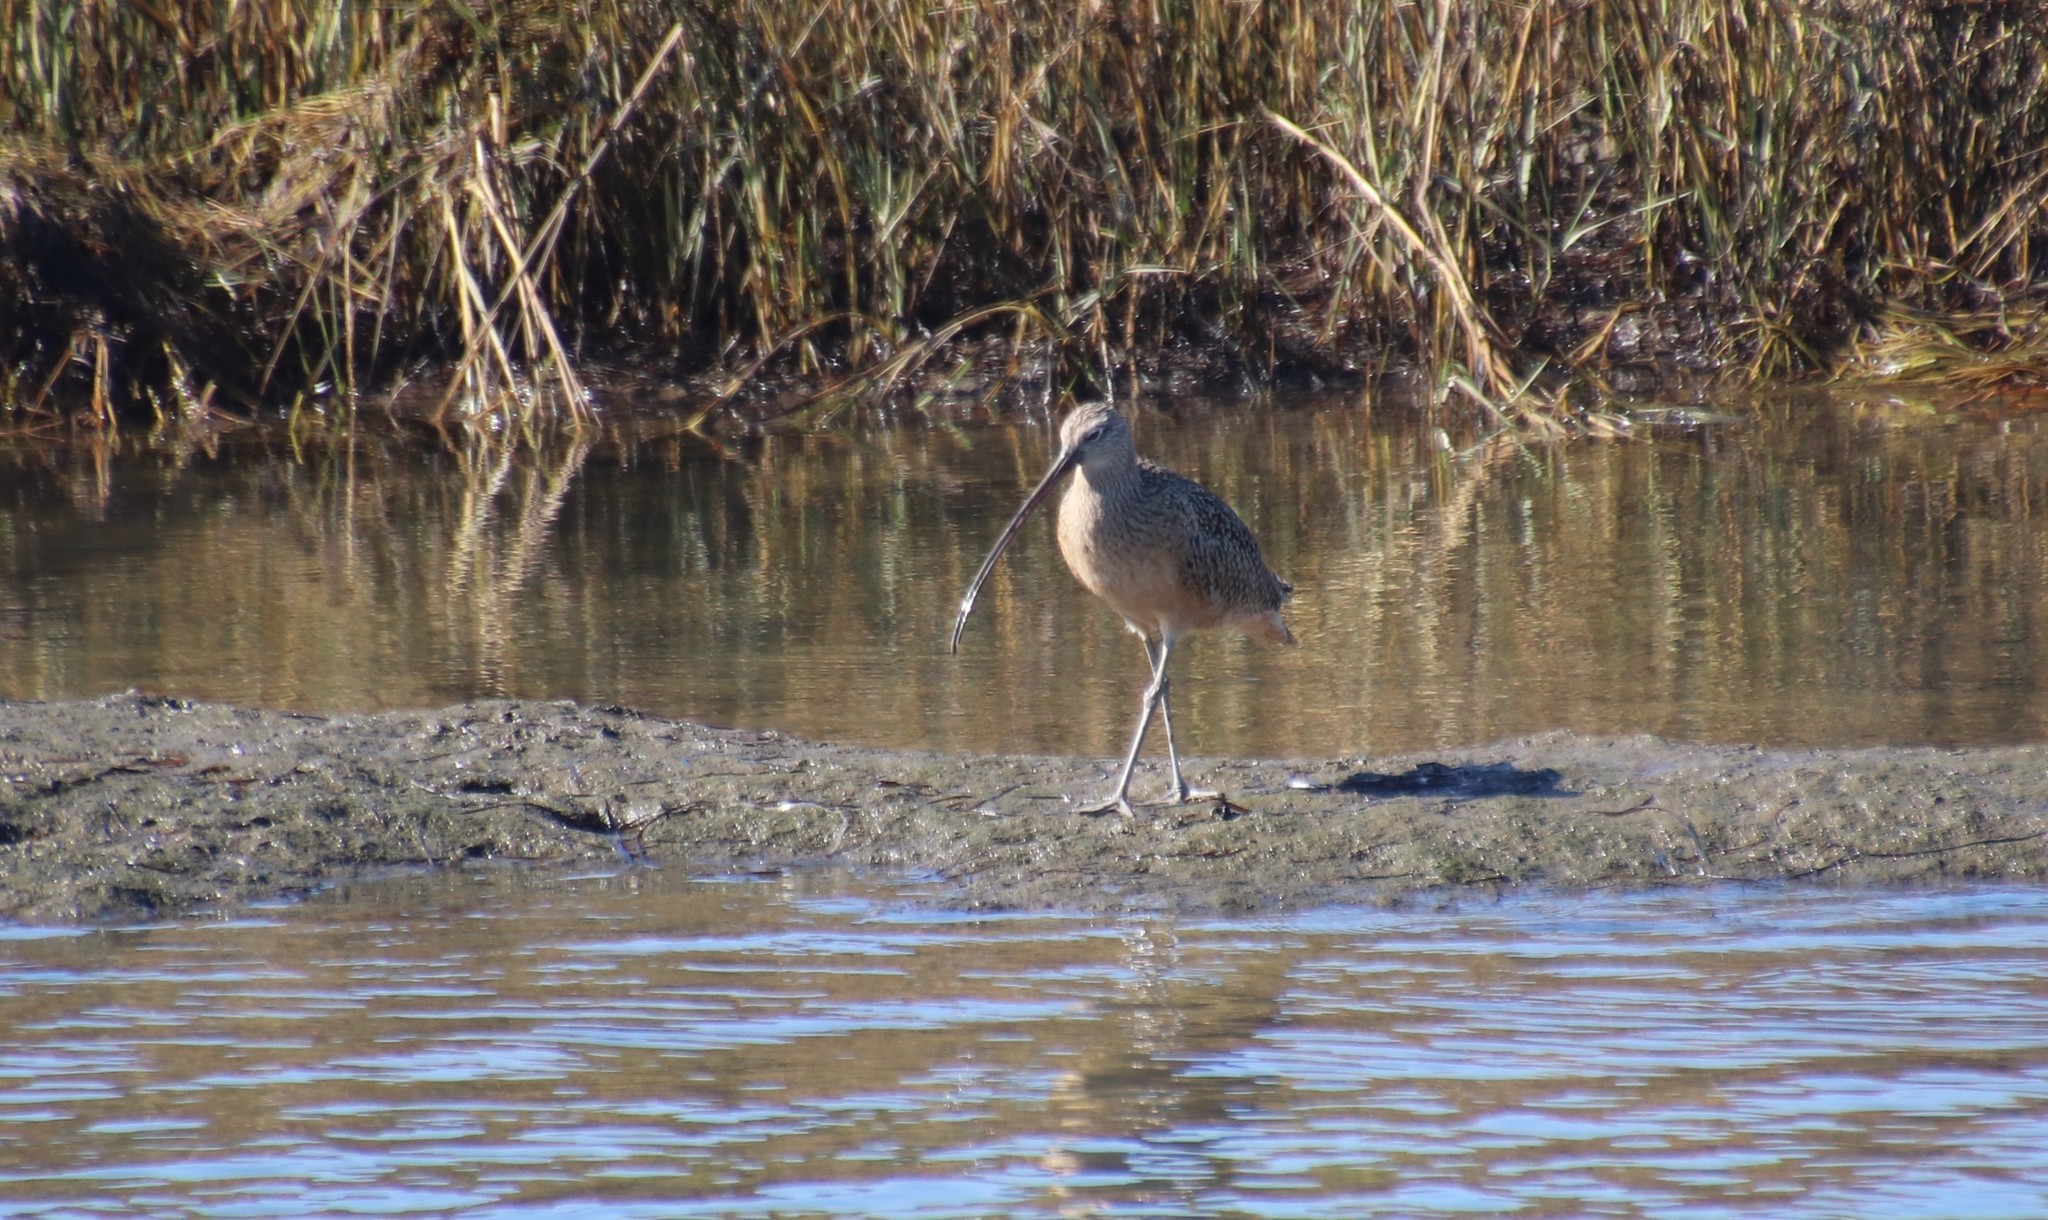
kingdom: Animalia
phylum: Chordata
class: Aves
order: Charadriiformes
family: Scolopacidae
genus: Numenius
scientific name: Numenius americanus
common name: Long-billed curlew
